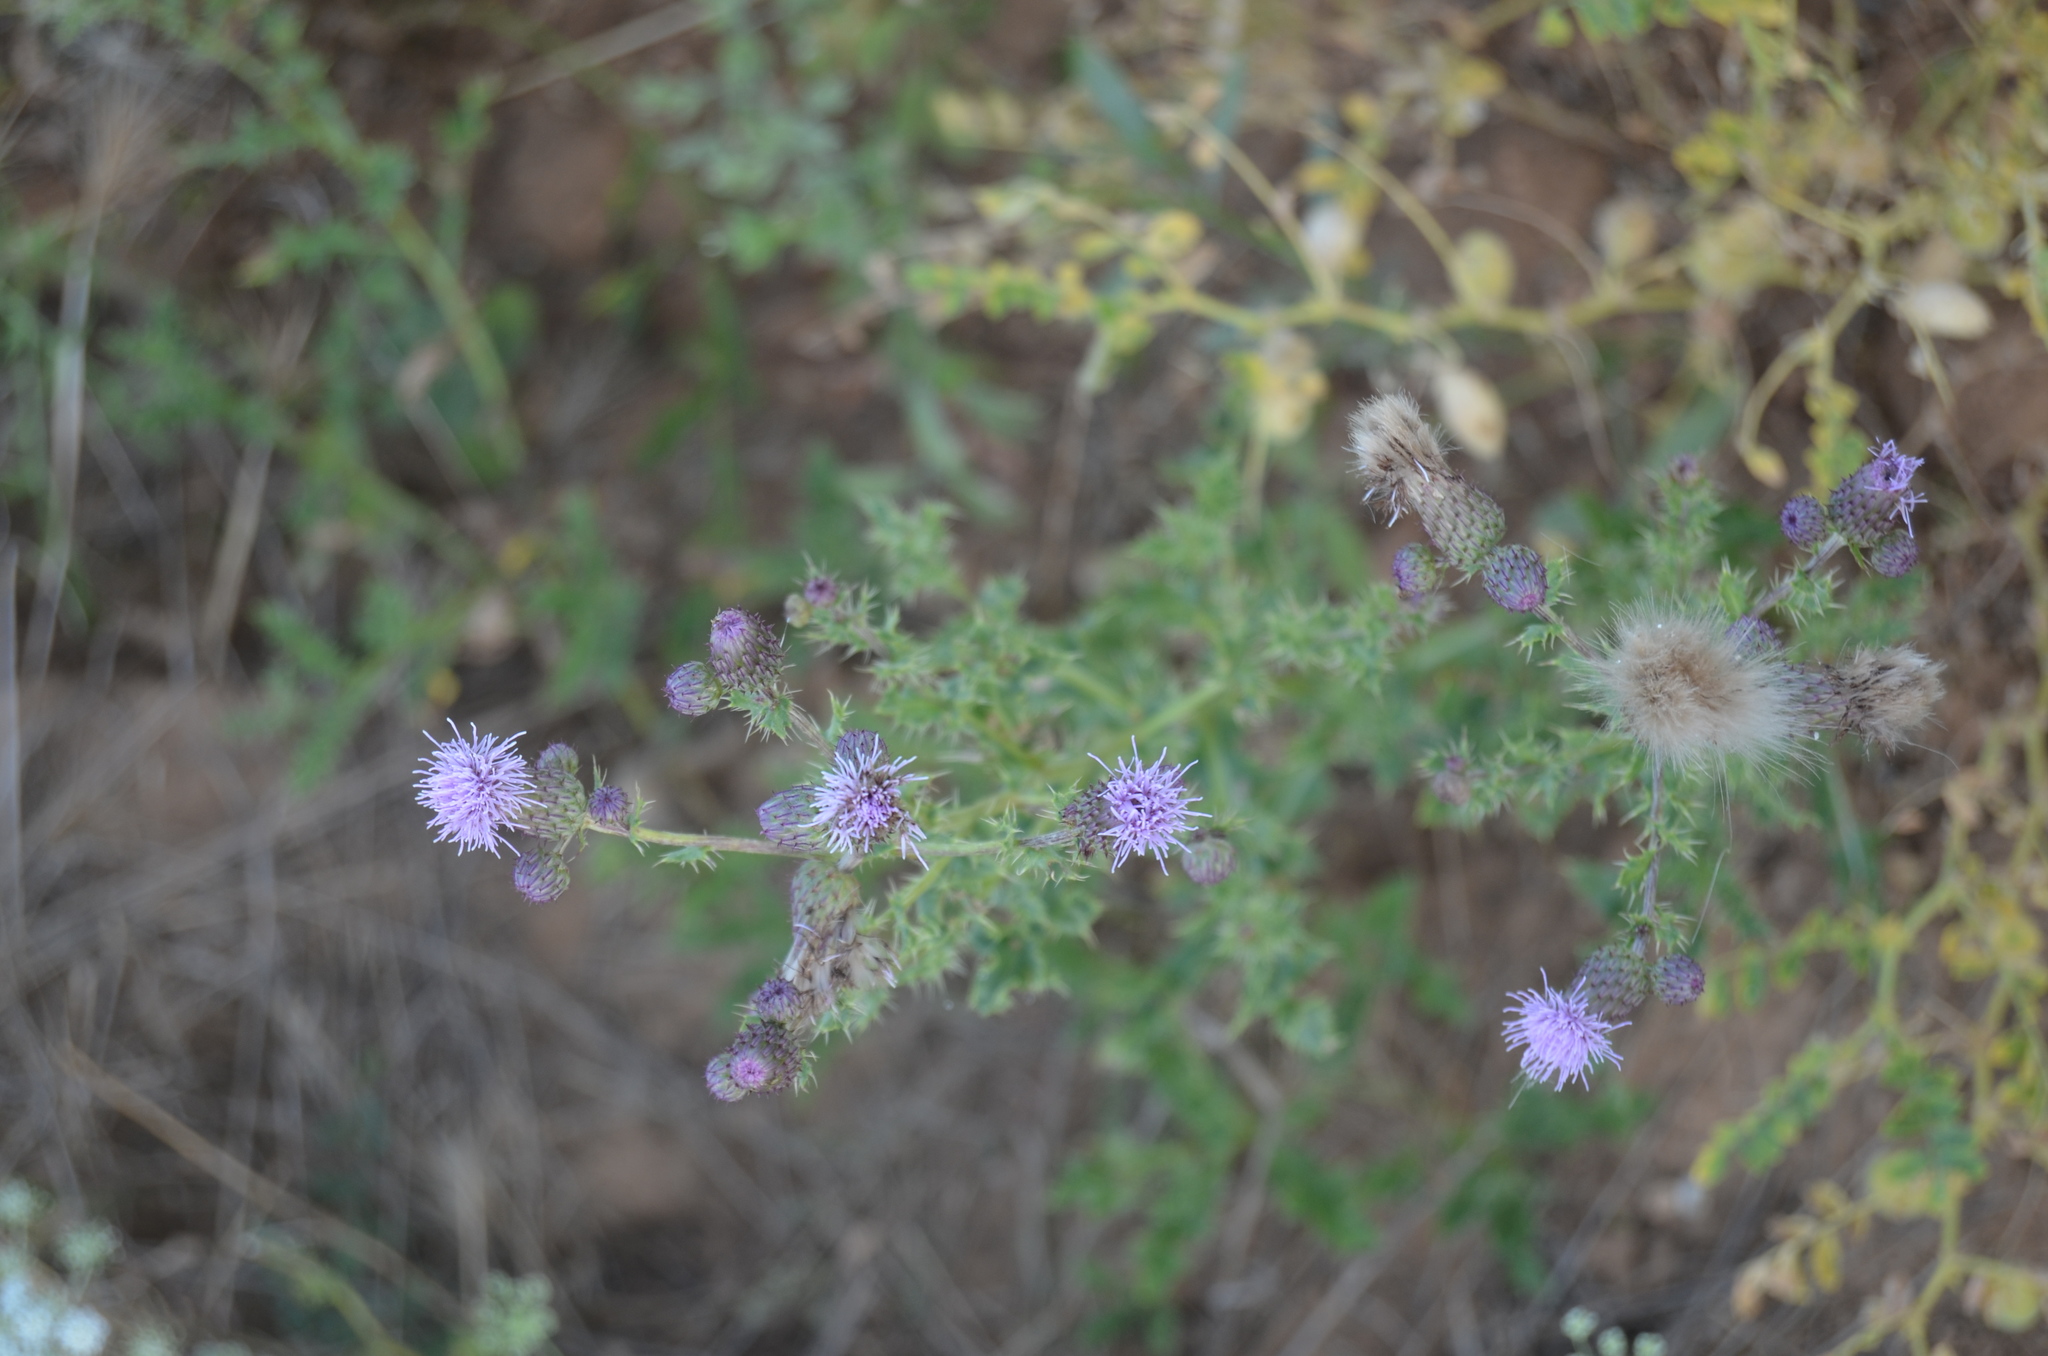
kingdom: Plantae
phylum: Tracheophyta
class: Magnoliopsida
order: Asterales
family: Asteraceae
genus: Cirsium
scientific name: Cirsium arvense
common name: Creeping thistle
